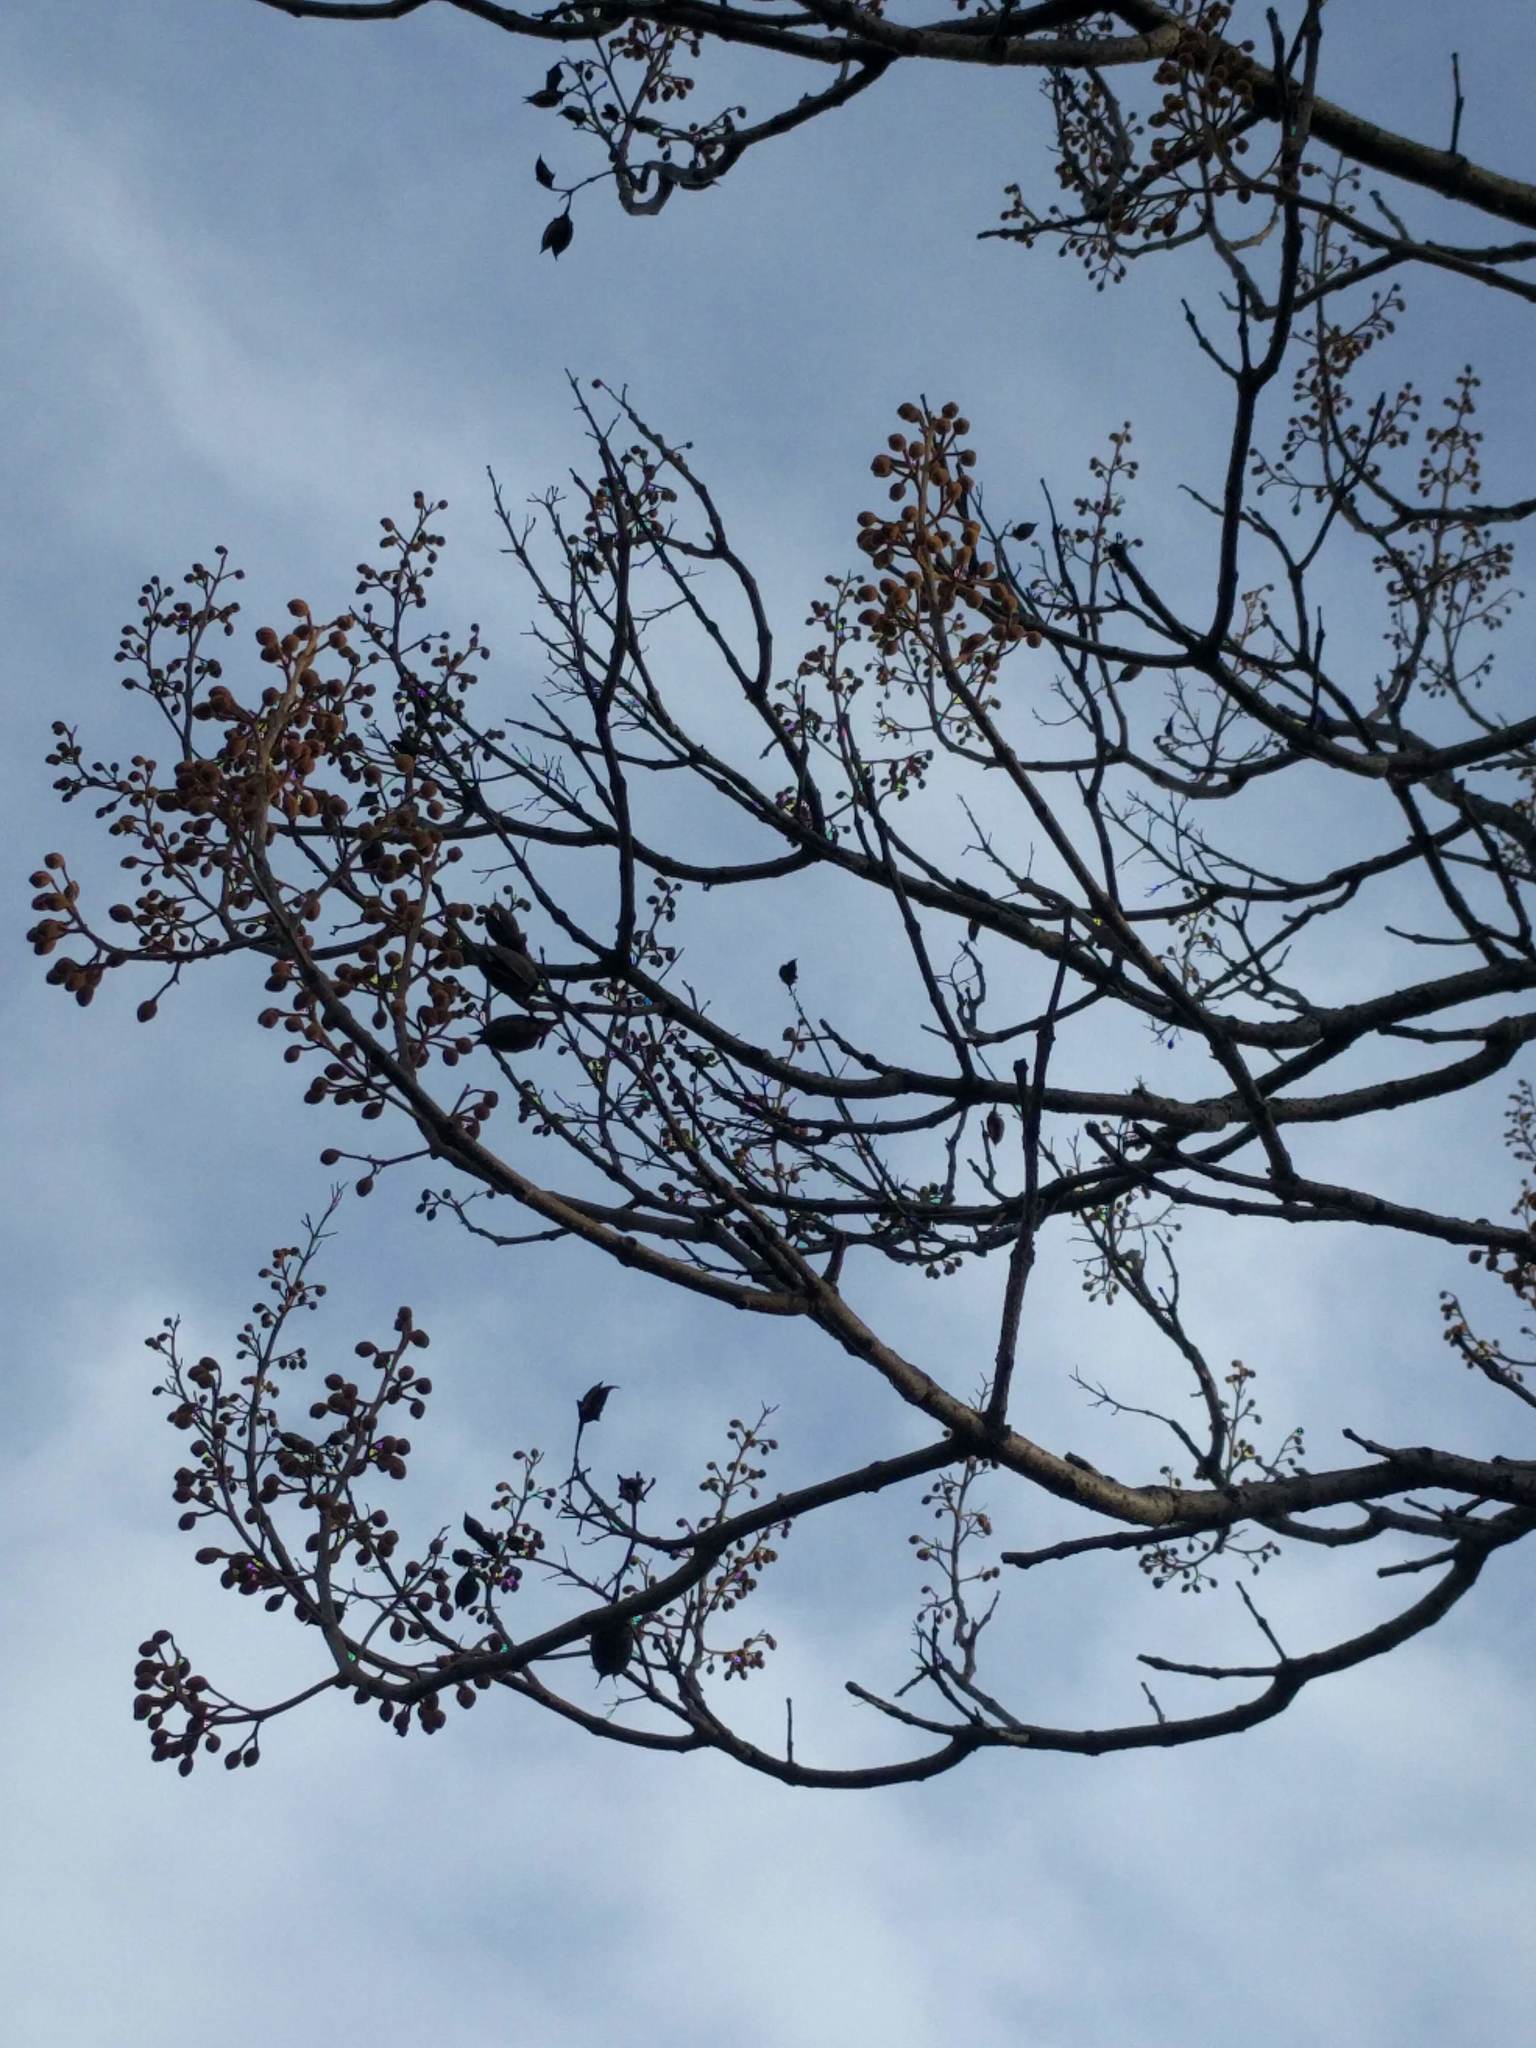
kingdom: Plantae
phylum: Tracheophyta
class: Magnoliopsida
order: Lamiales
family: Paulowniaceae
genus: Paulownia
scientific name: Paulownia tomentosa
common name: Foxglove-tree
